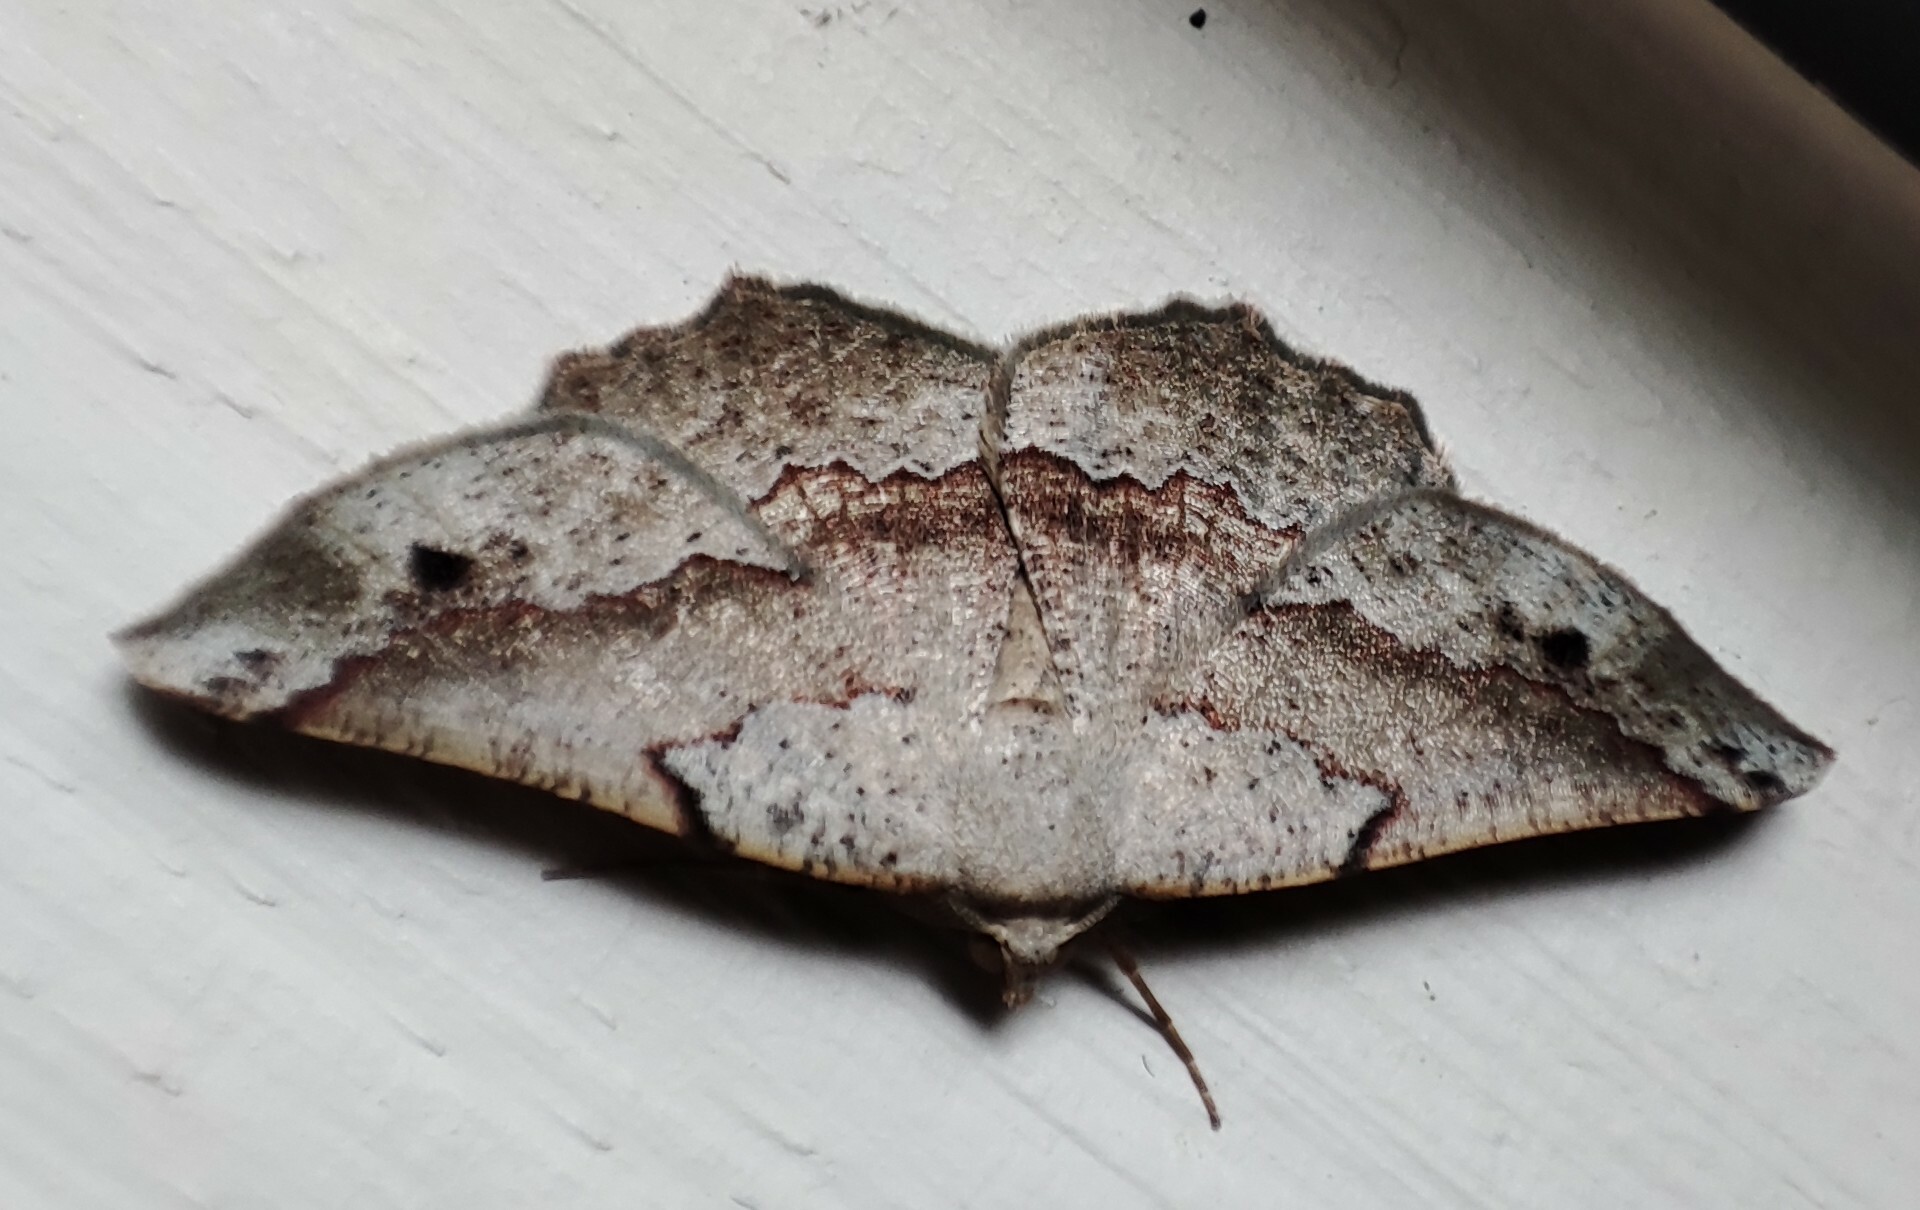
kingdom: Animalia
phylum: Arthropoda
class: Insecta
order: Lepidoptera
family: Geometridae
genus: Drepanogynis
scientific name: Drepanogynis mixtaria
